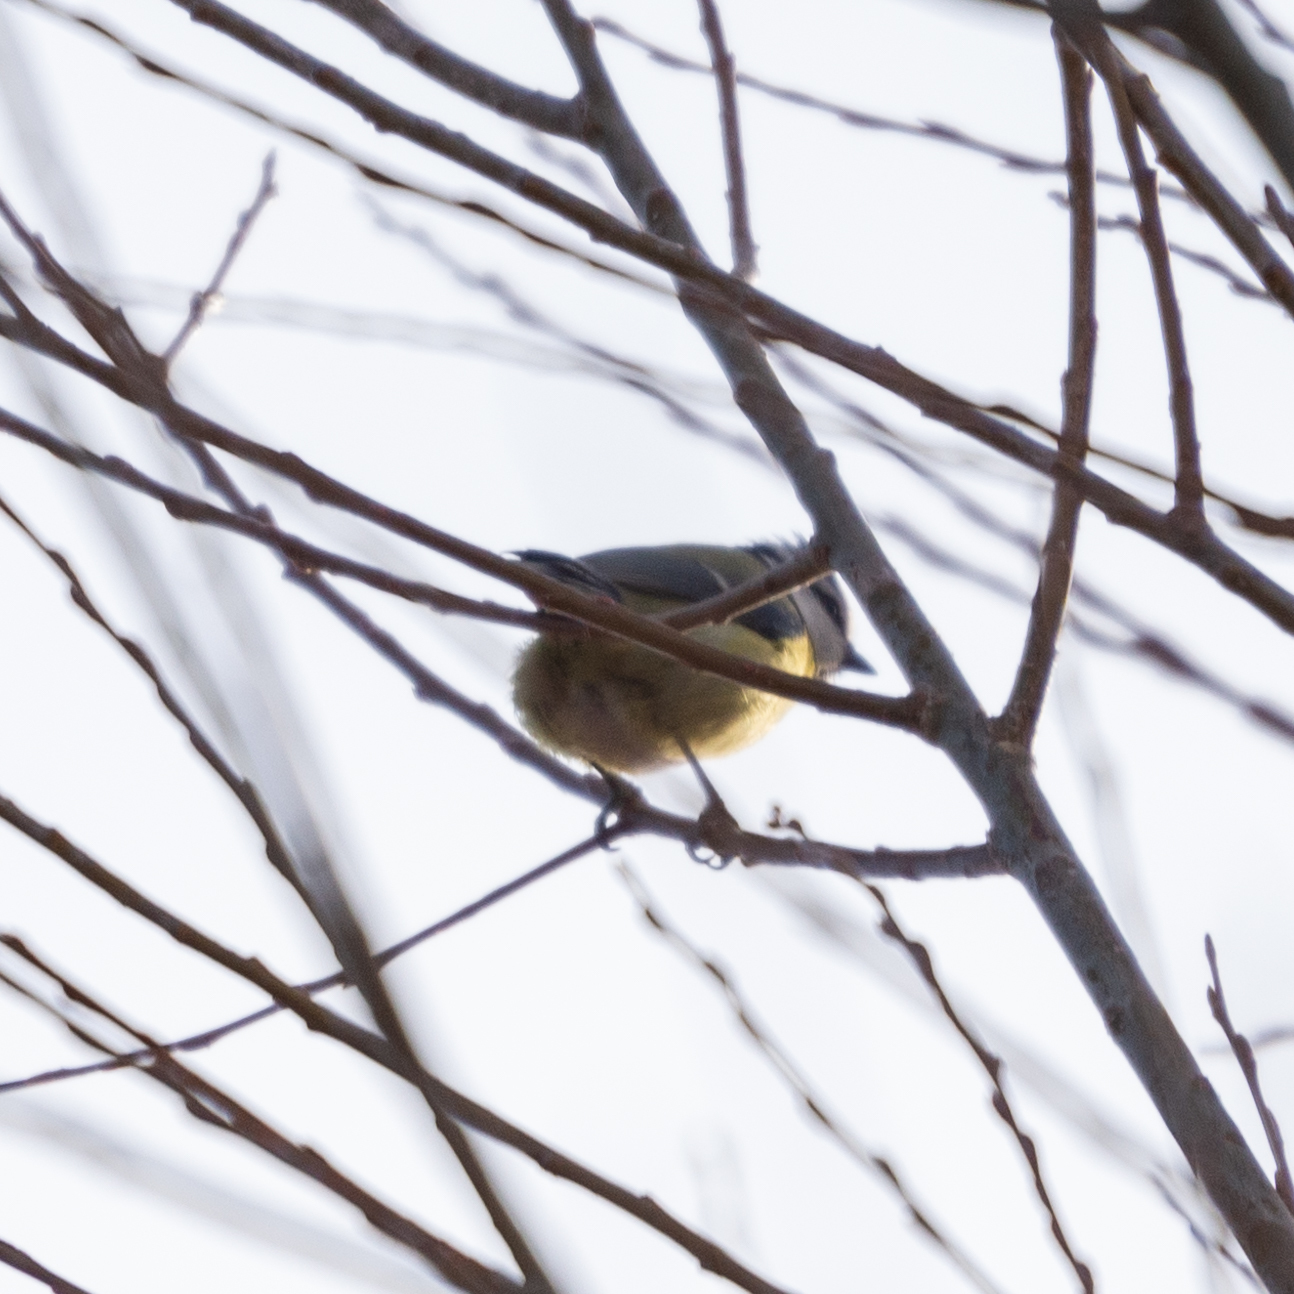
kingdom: Animalia
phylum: Chordata
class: Aves
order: Passeriformes
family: Paridae
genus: Cyanistes
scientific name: Cyanistes caeruleus
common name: Eurasian blue tit
